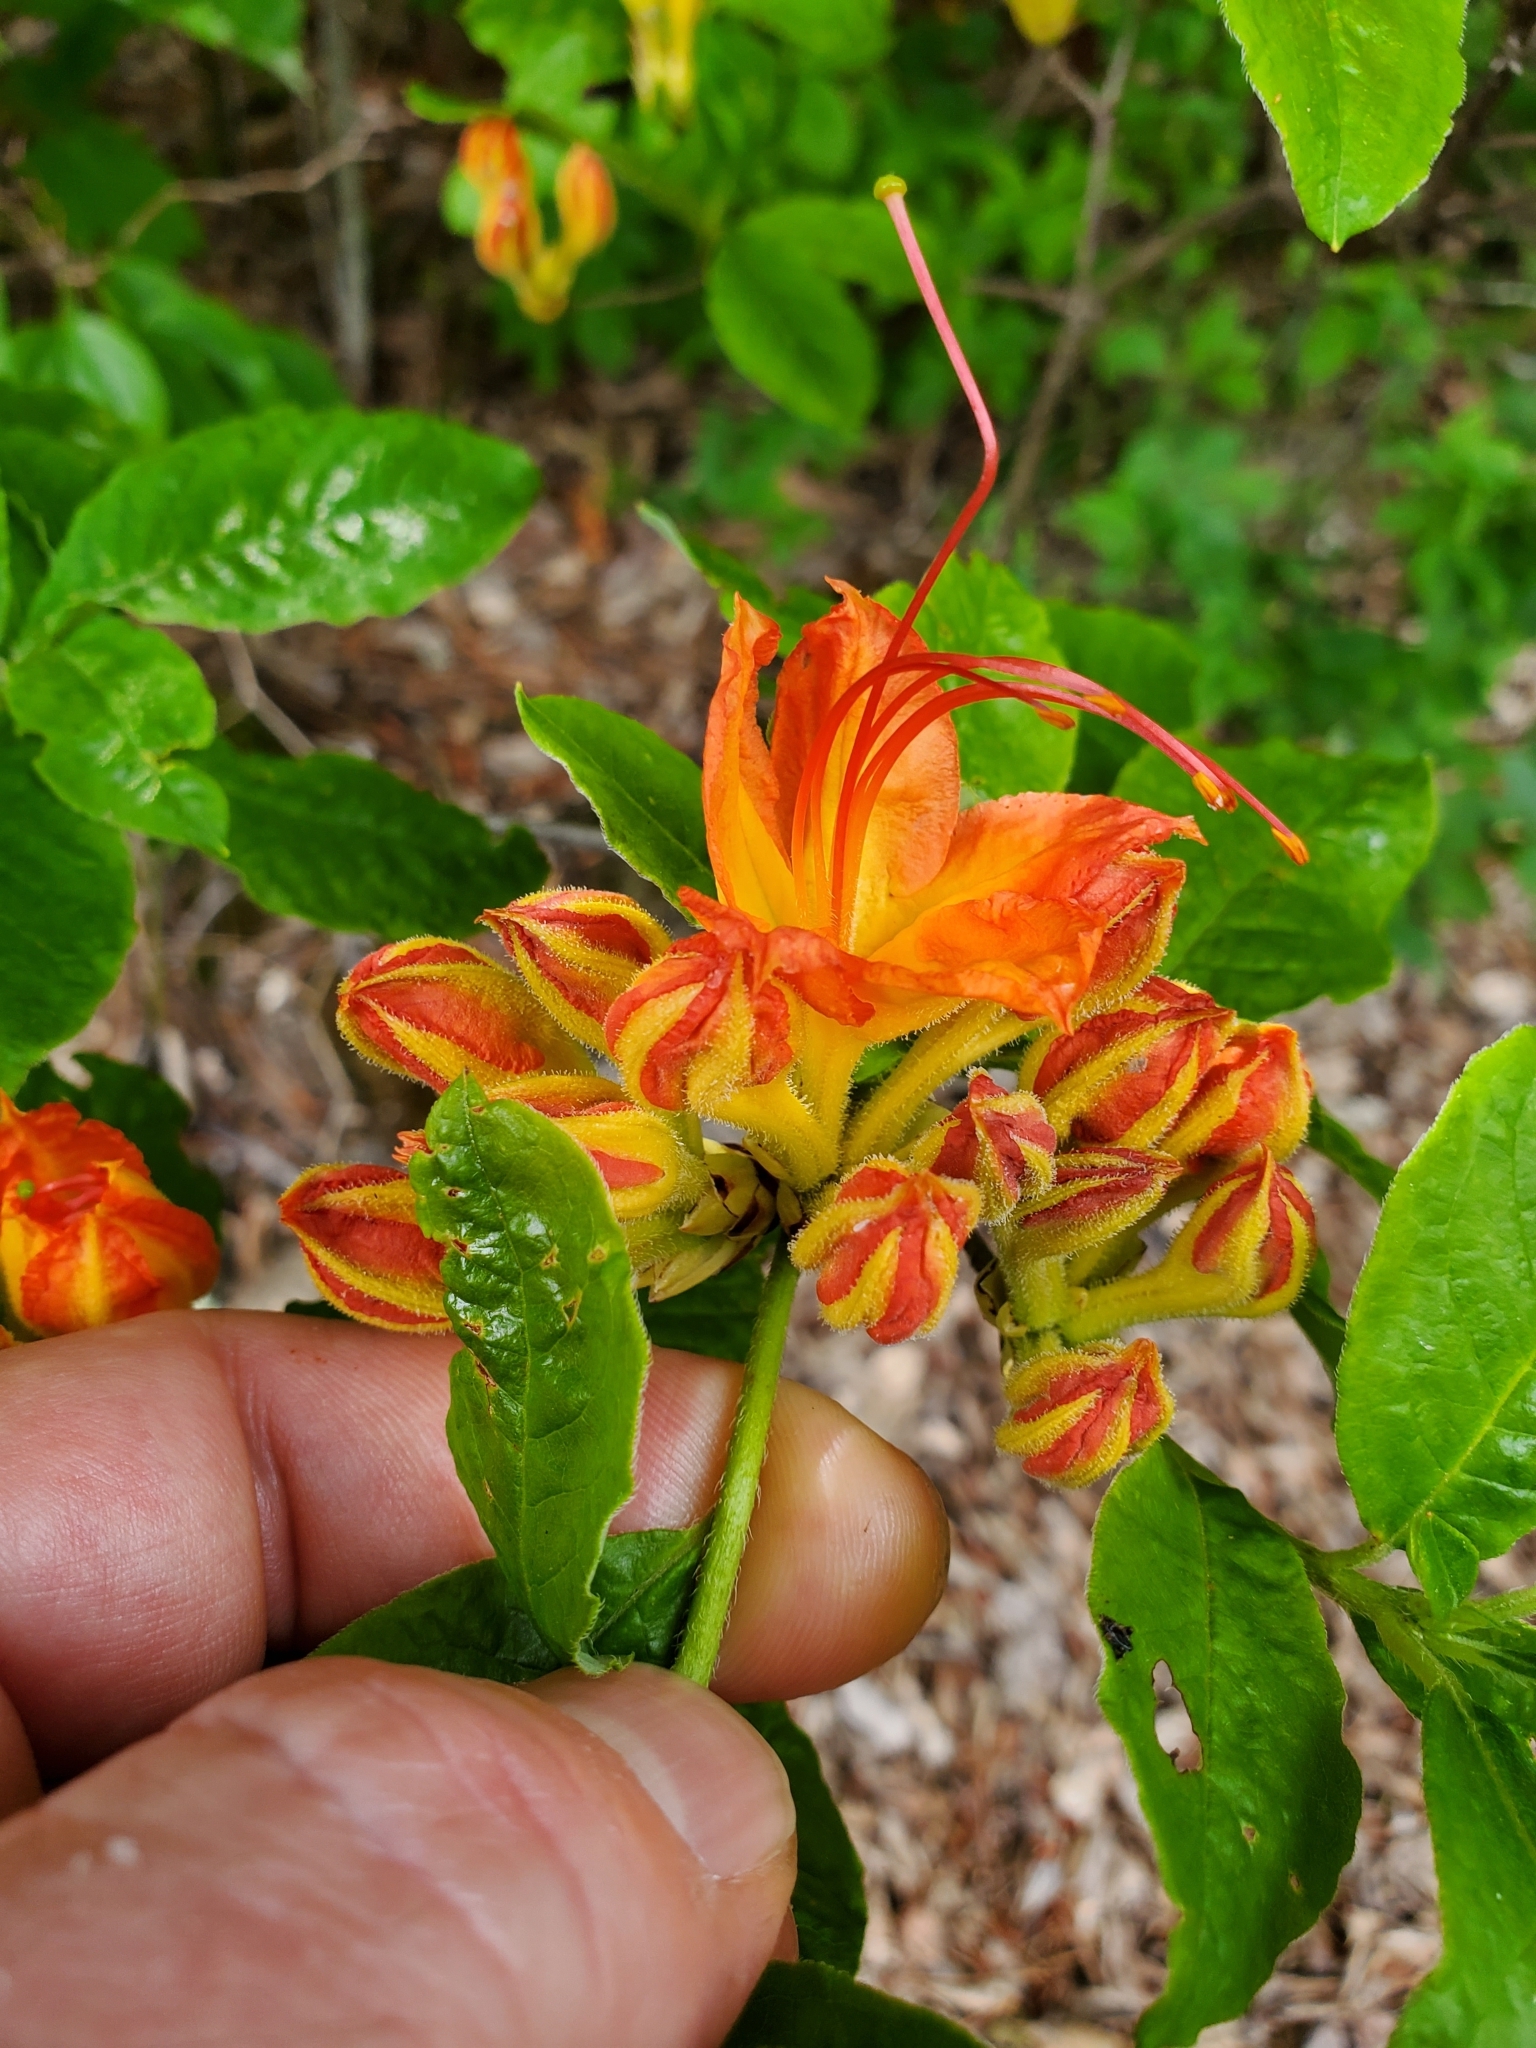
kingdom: Plantae
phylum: Tracheophyta
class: Magnoliopsida
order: Ericales
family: Ericaceae
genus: Rhododendron
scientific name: Rhododendron calendulaceum
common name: Flame azalea
